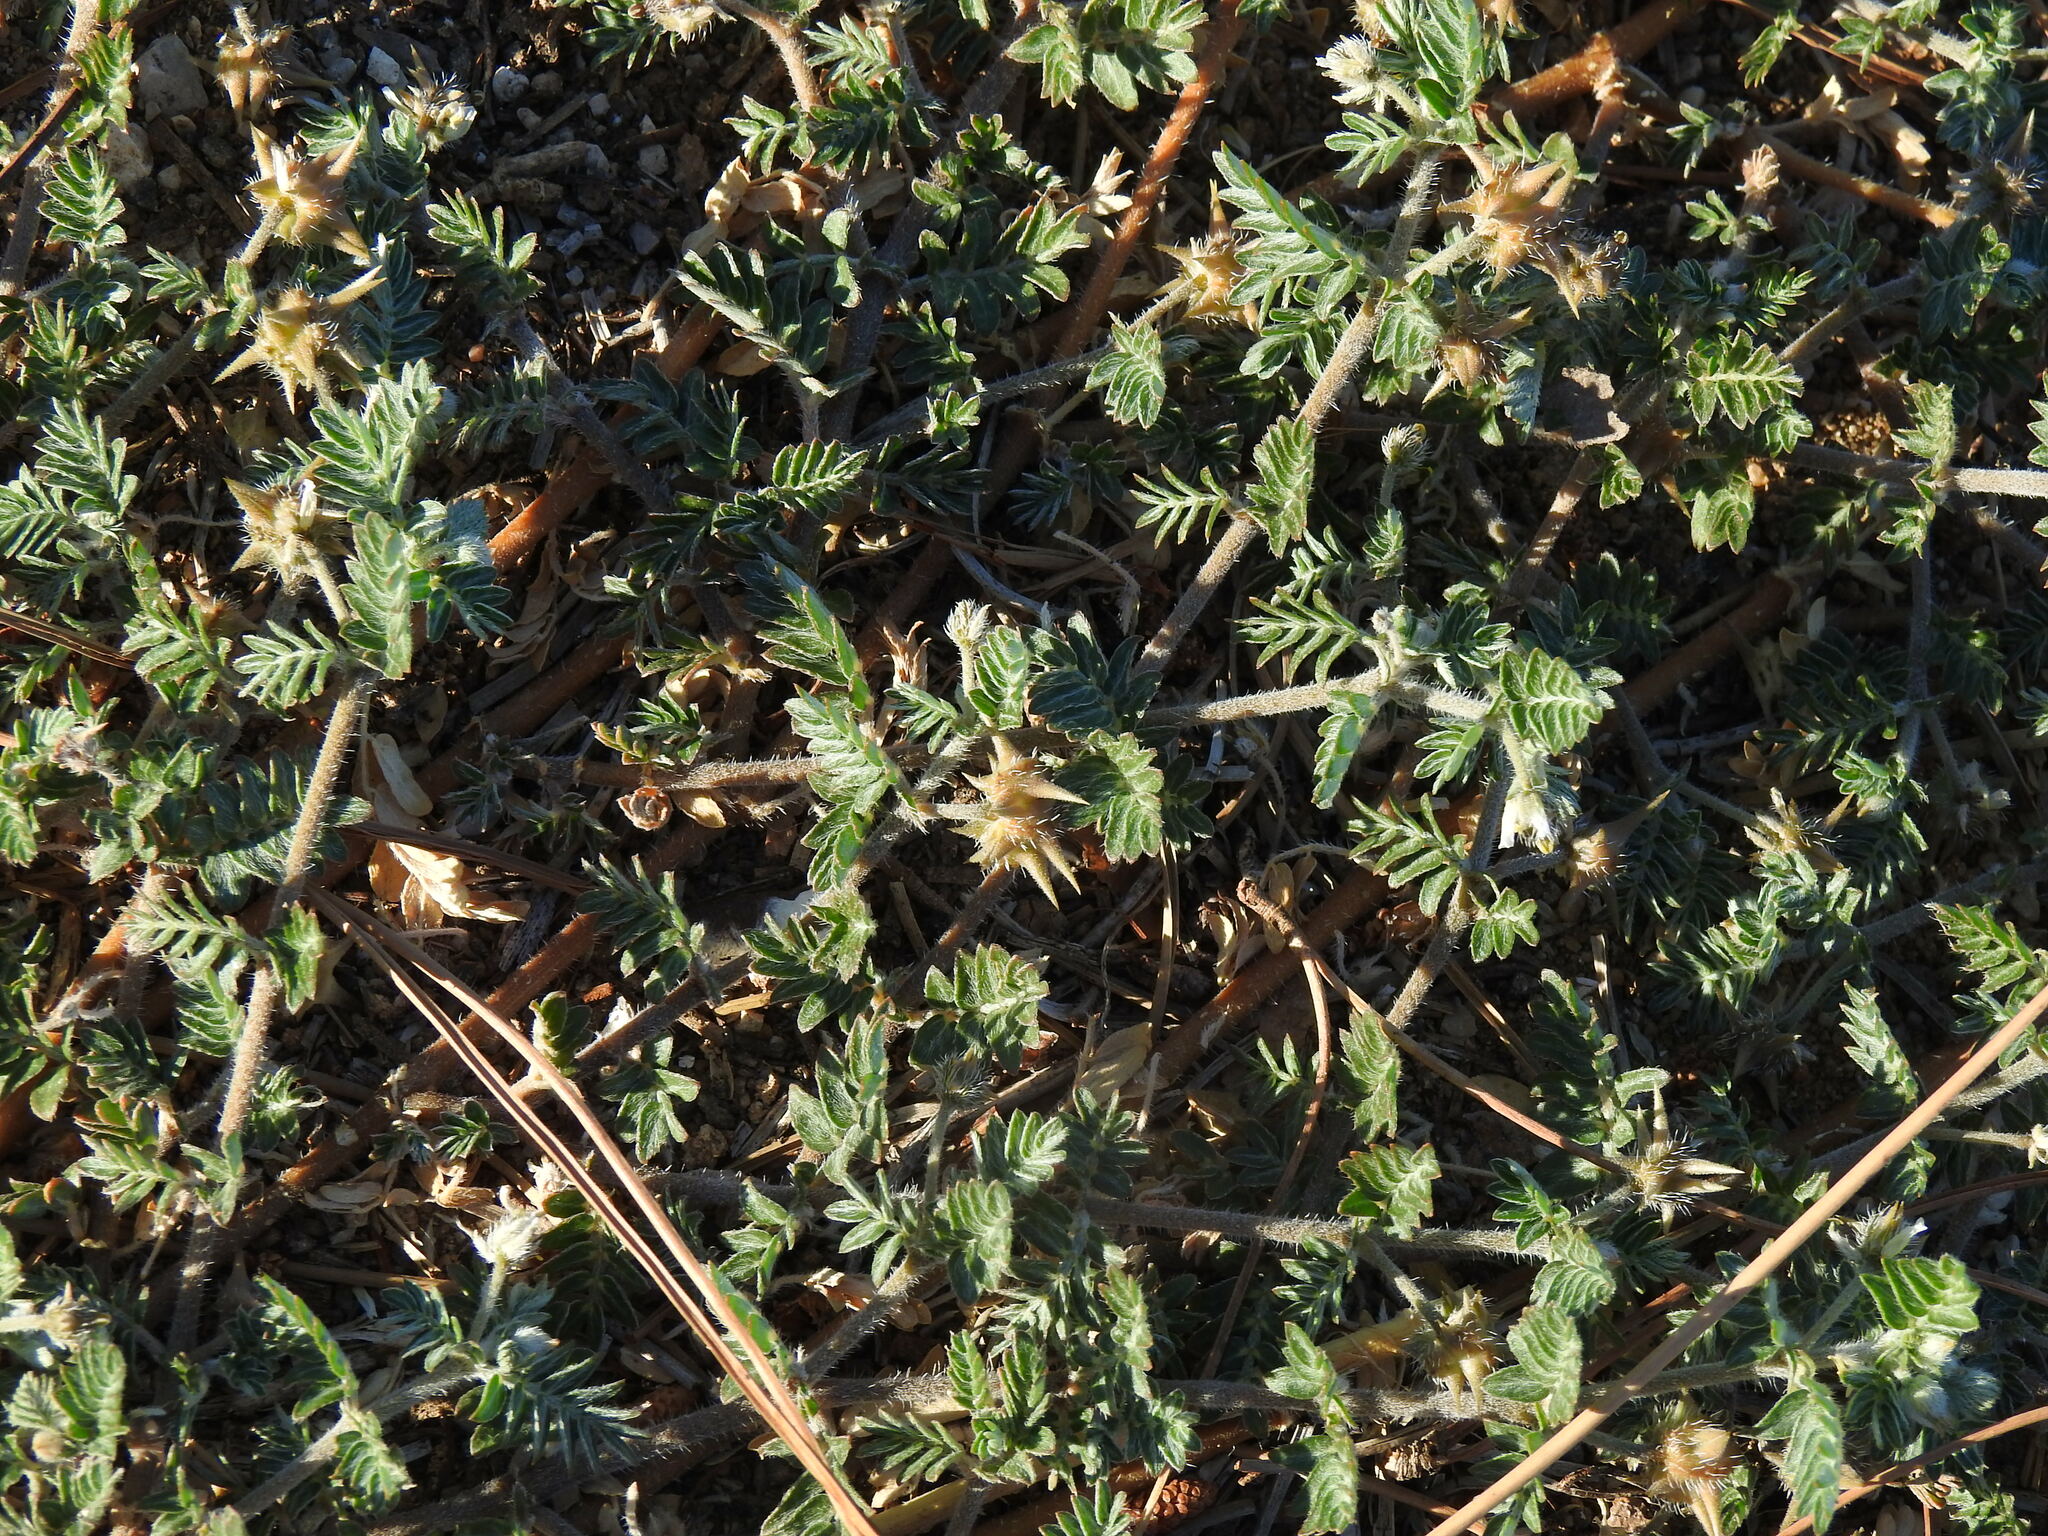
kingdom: Plantae
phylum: Tracheophyta
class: Magnoliopsida
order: Zygophyllales
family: Zygophyllaceae
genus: Tribulus
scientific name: Tribulus terrestris
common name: Puncturevine
